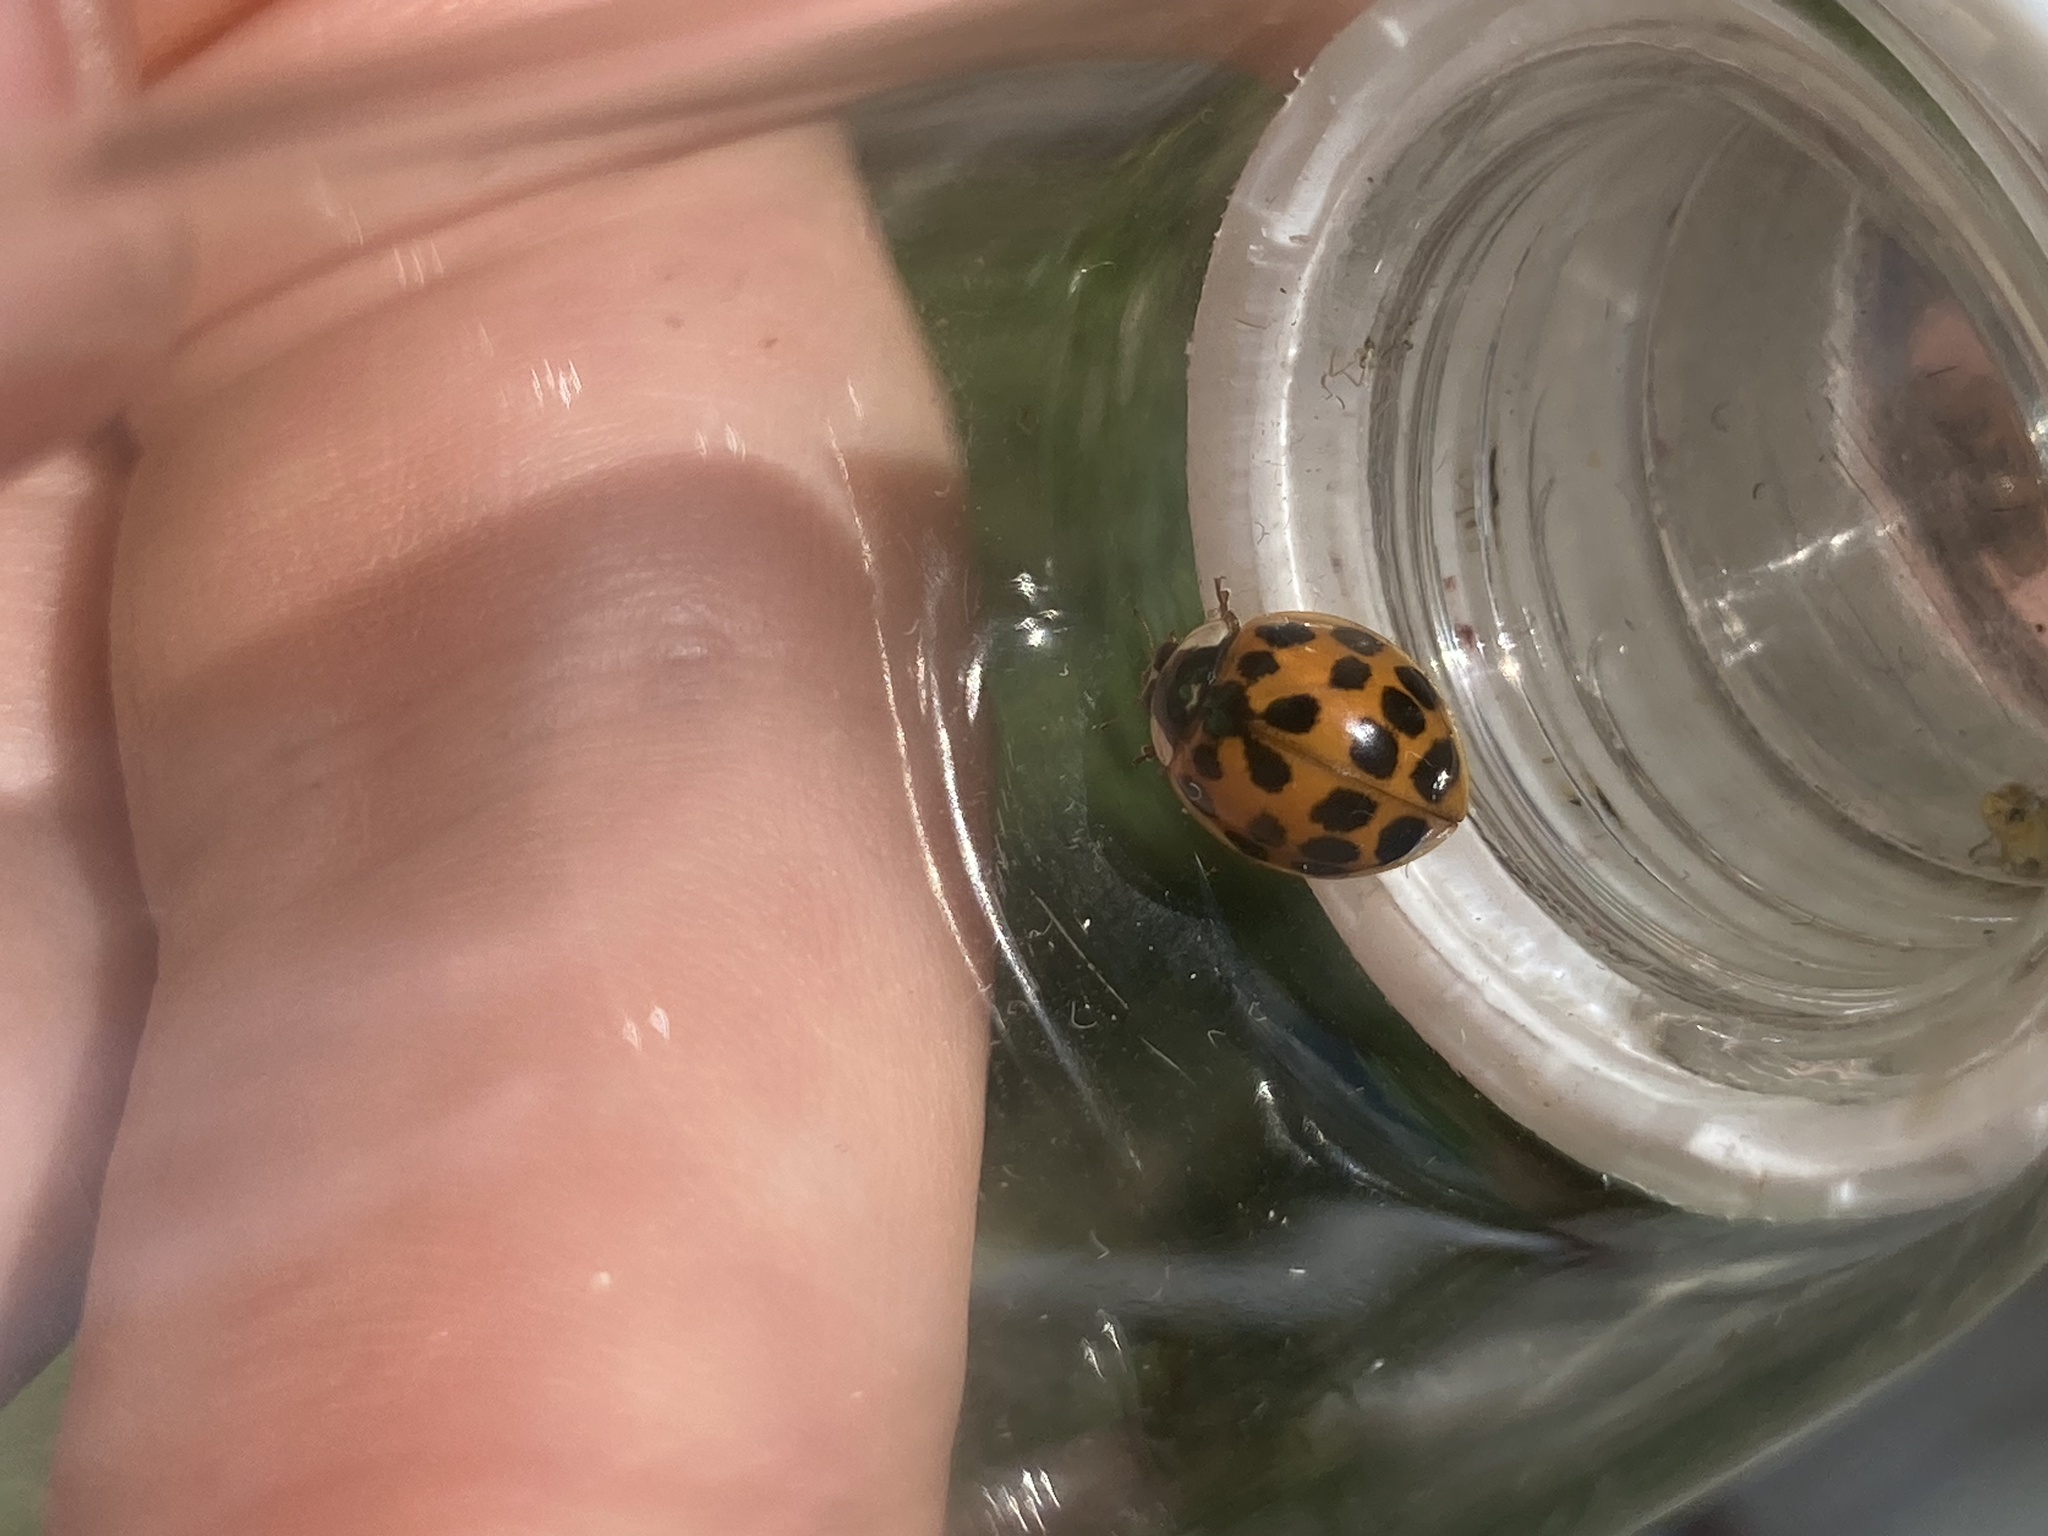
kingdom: Animalia
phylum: Arthropoda
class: Insecta
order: Coleoptera
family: Coccinellidae
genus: Harmonia
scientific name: Harmonia axyridis
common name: Harlequin ladybird
